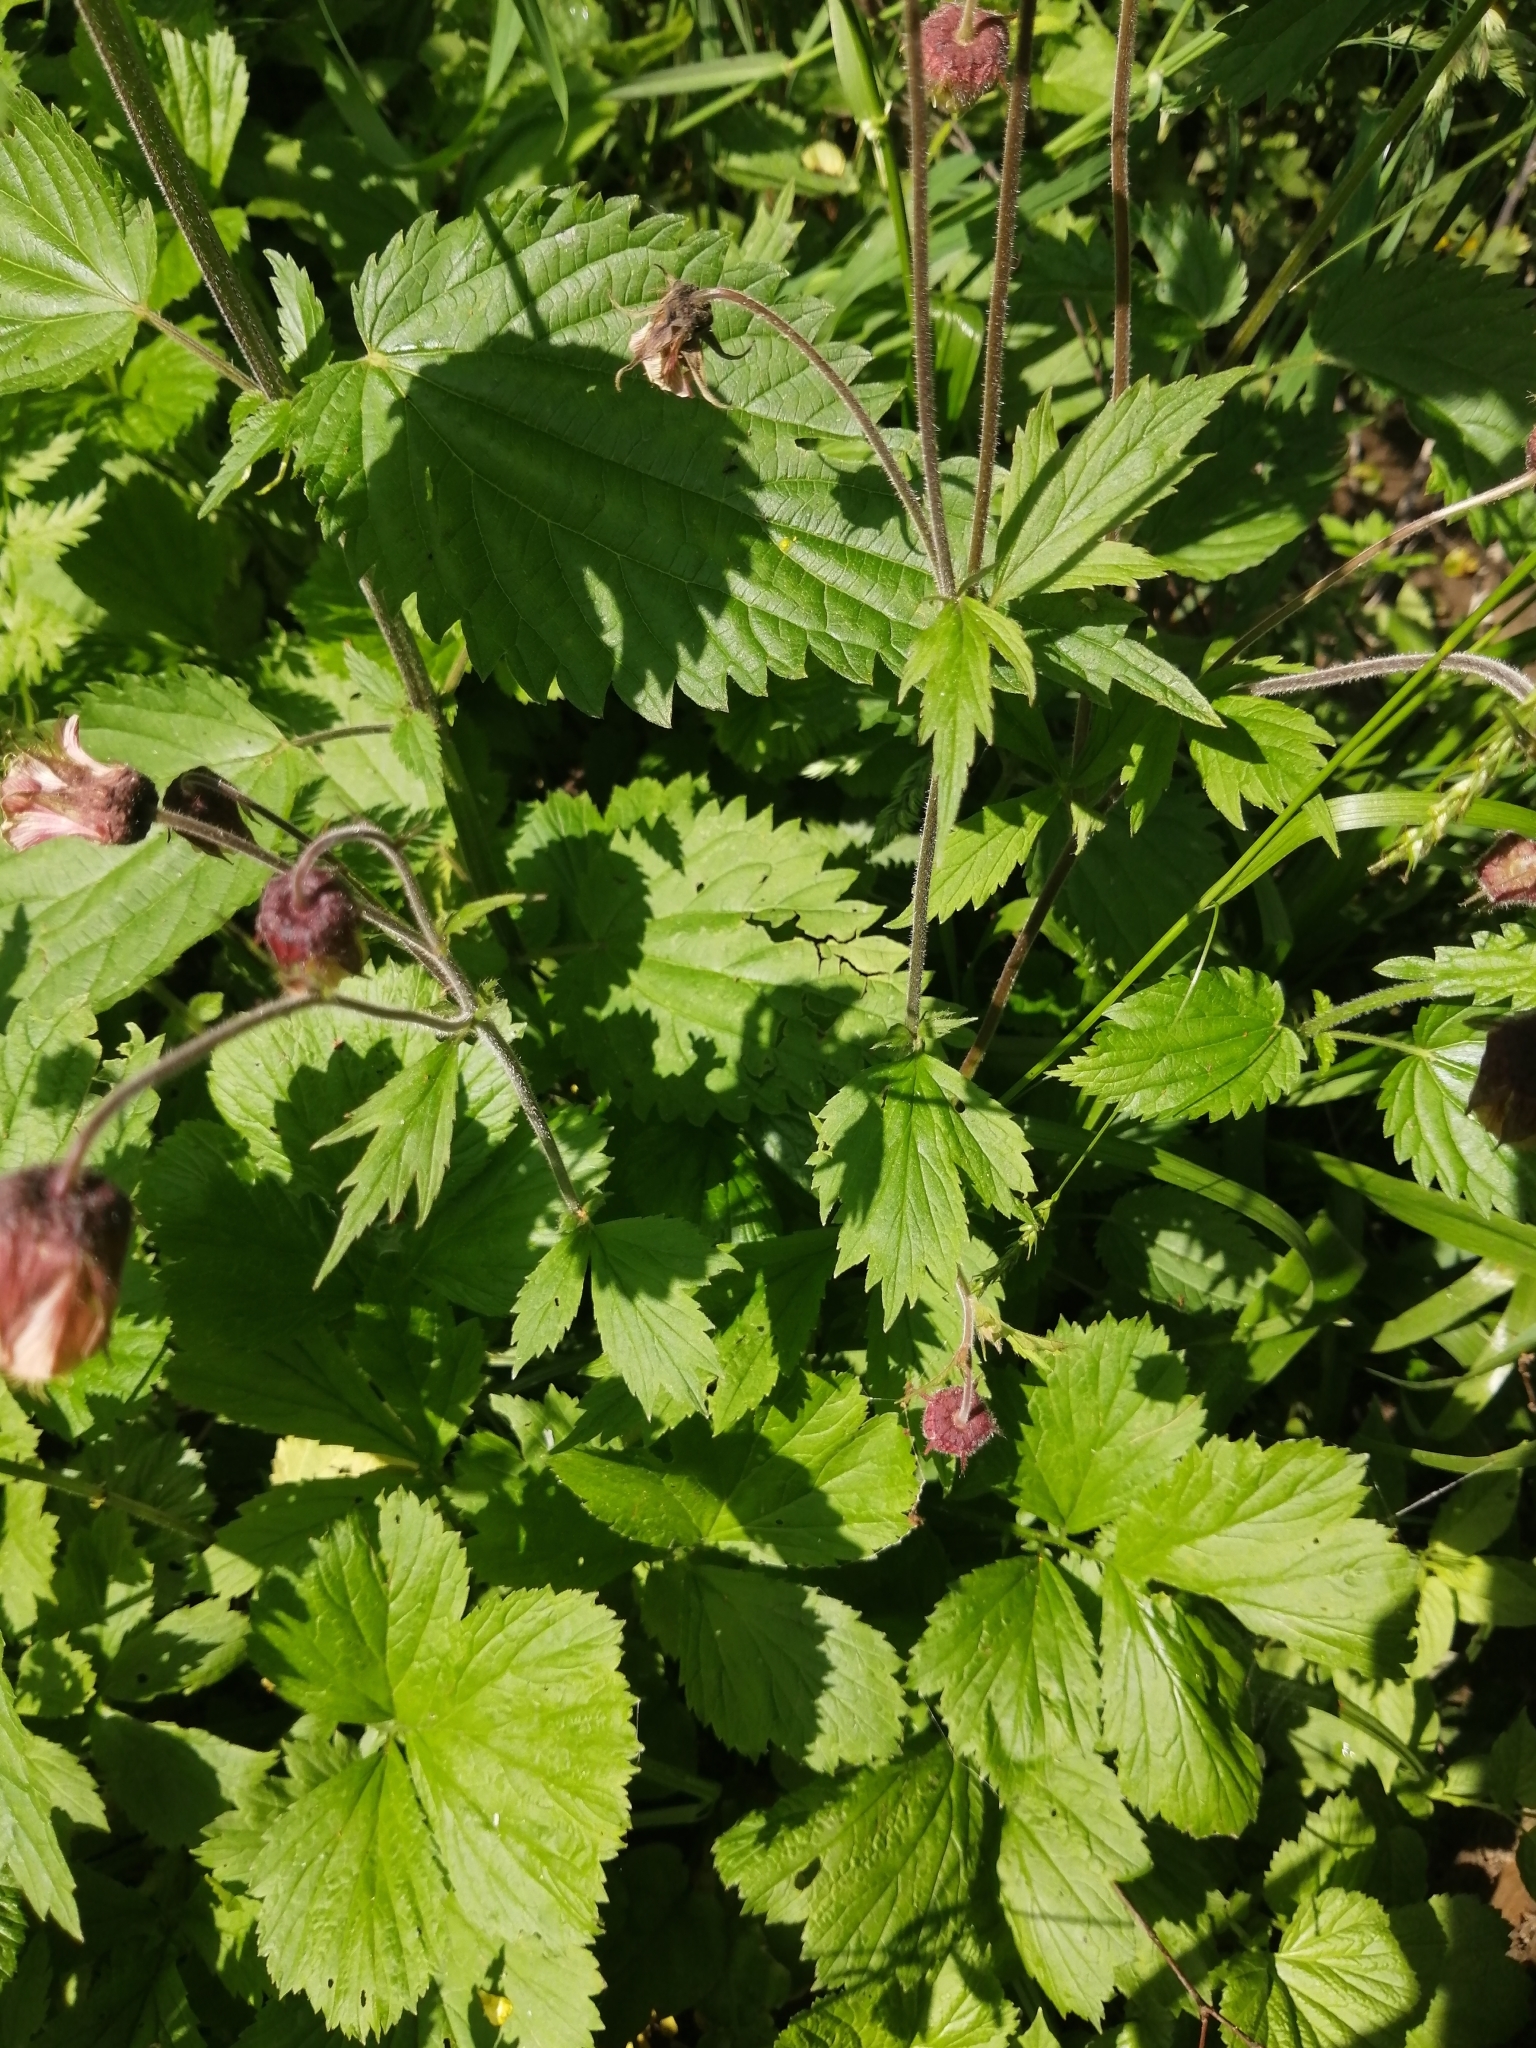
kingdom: Plantae
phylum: Tracheophyta
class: Magnoliopsida
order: Rosales
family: Rosaceae
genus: Geum
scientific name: Geum rivale
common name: Water avens
